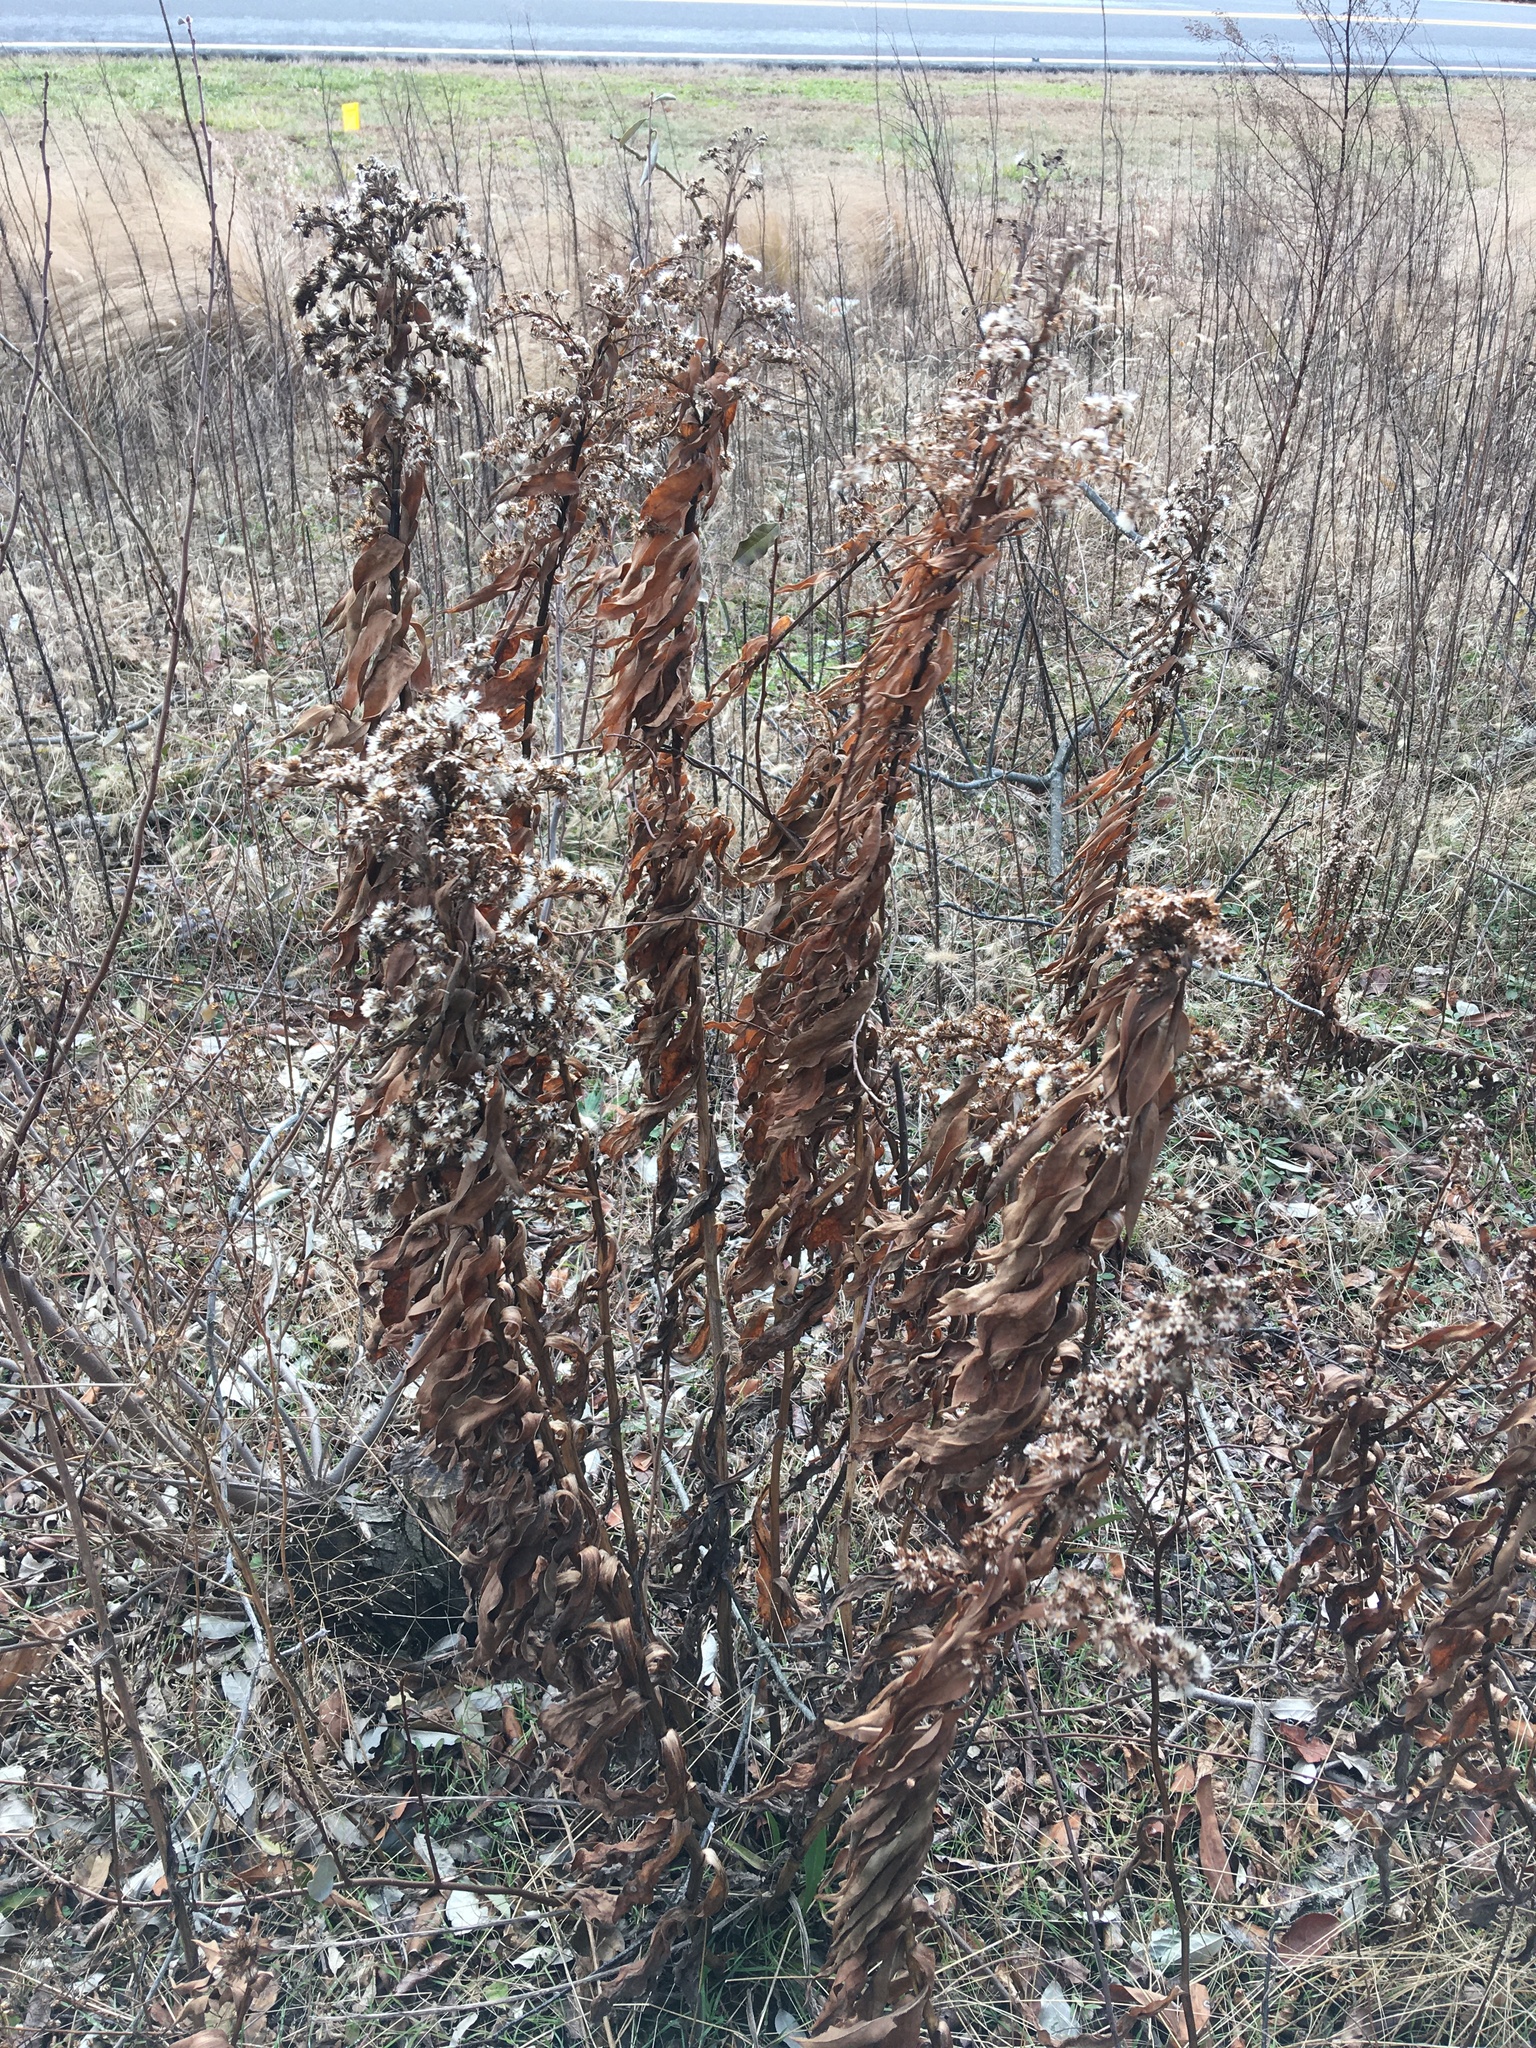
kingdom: Plantae
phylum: Tracheophyta
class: Magnoliopsida
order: Asterales
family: Asteraceae
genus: Solidago
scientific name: Solidago sempervirens
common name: Salt-marsh goldenrod
